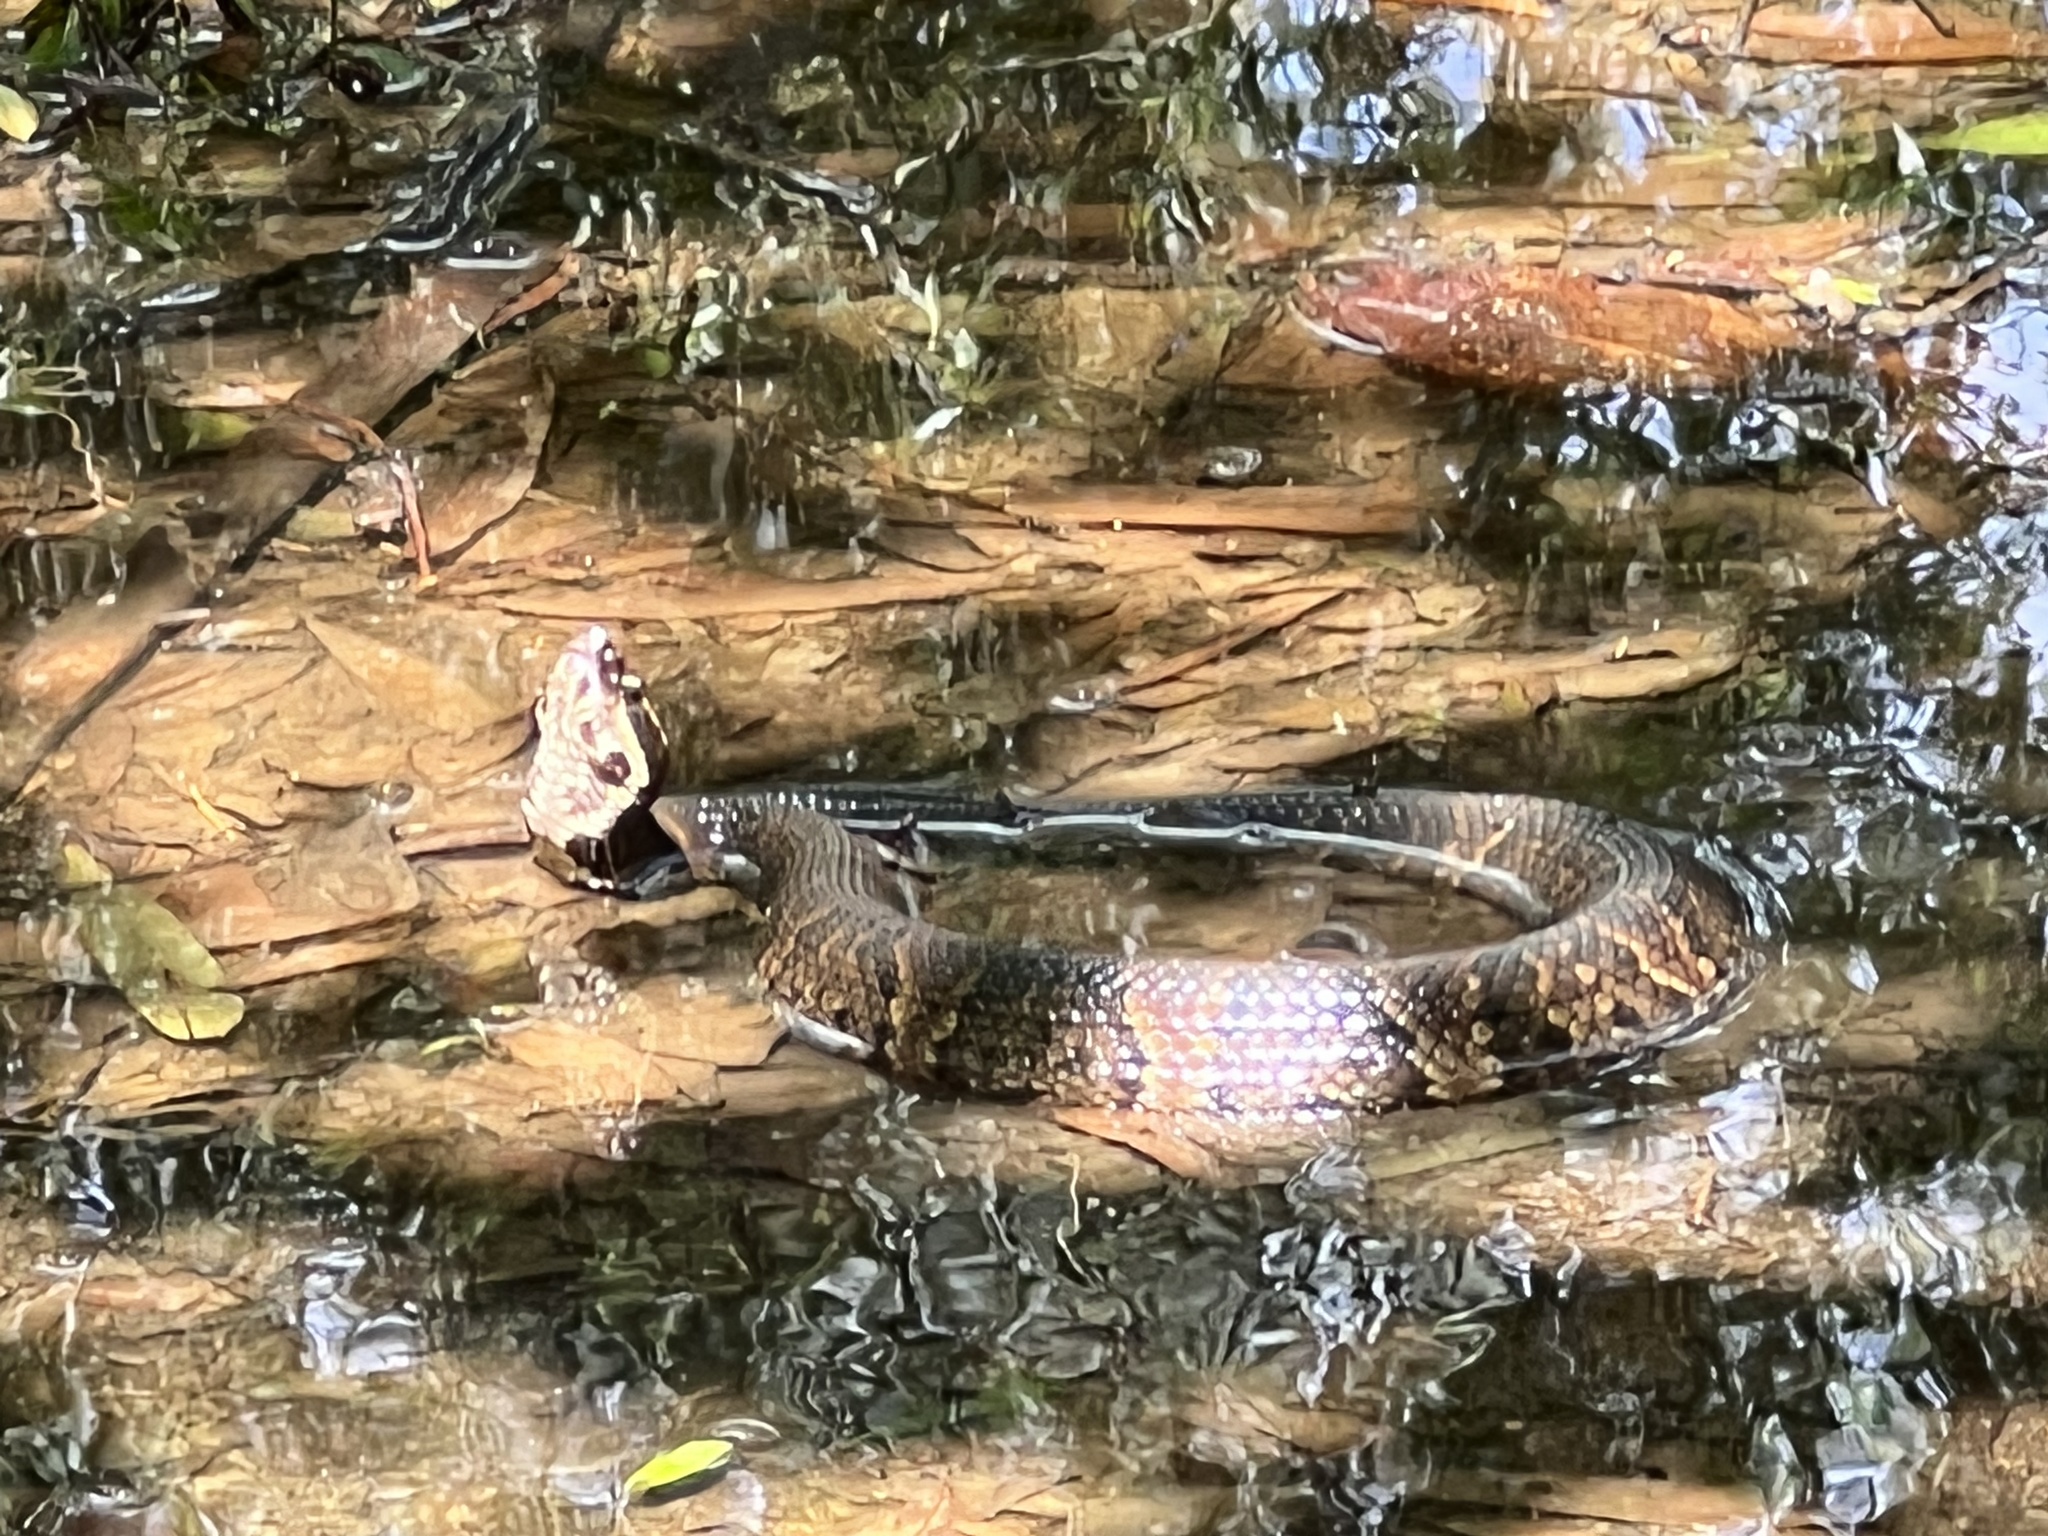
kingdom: Animalia
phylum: Chordata
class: Squamata
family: Viperidae
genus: Agkistrodon
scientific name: Agkistrodon piscivorus
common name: Cottonmouth
